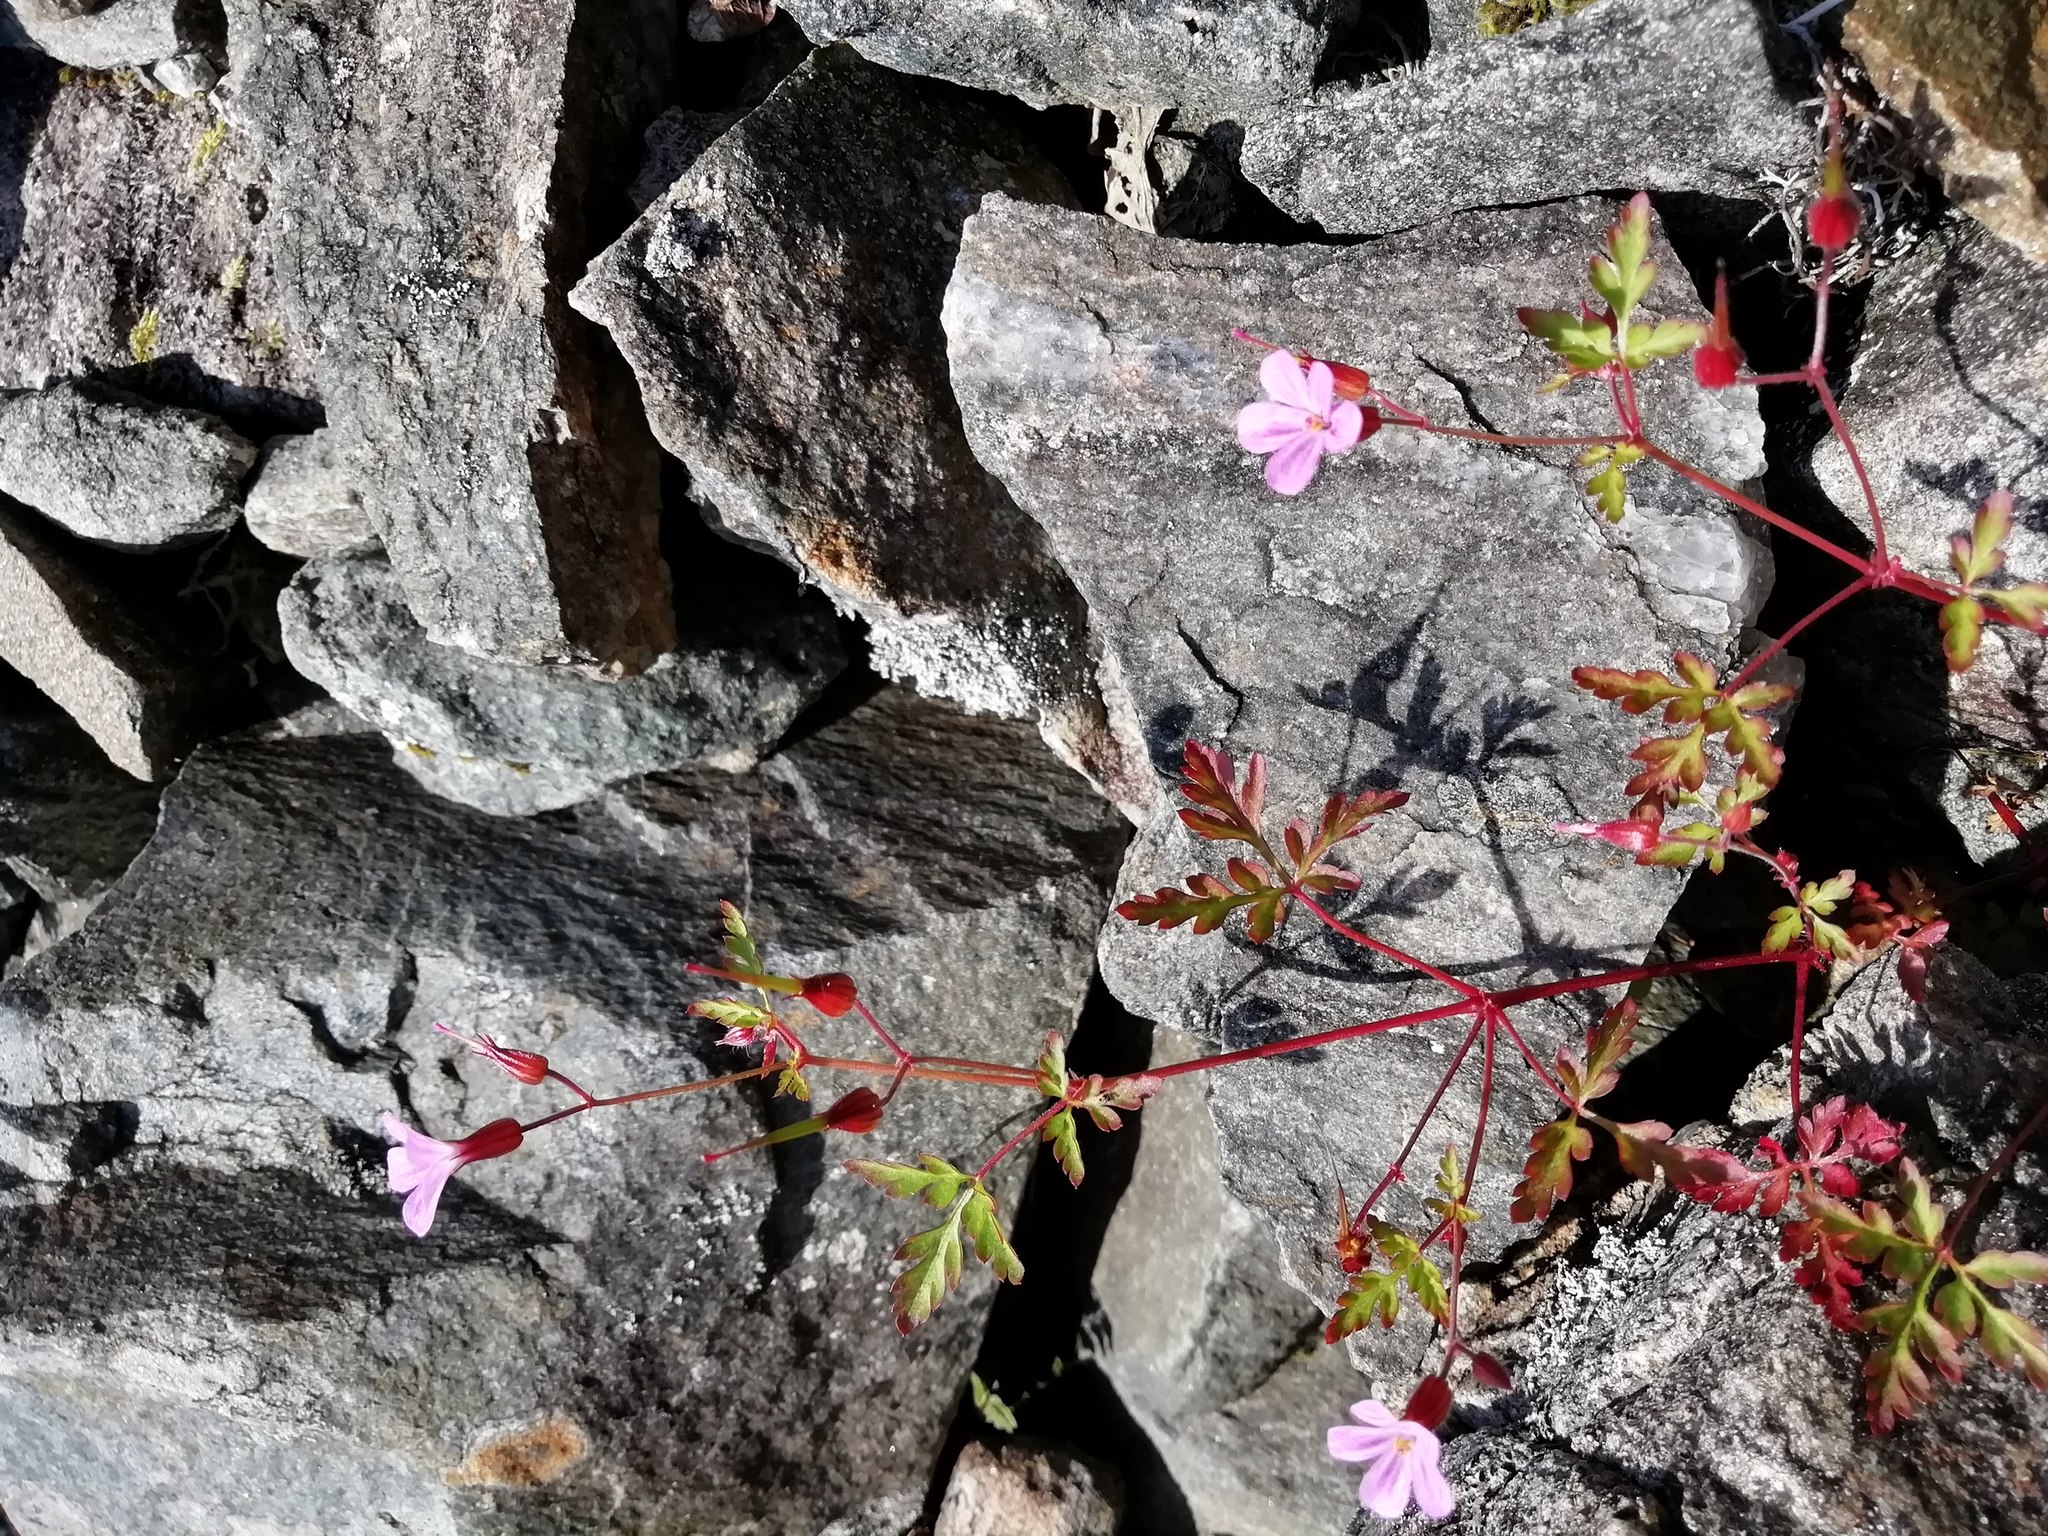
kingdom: Plantae
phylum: Tracheophyta
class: Magnoliopsida
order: Geraniales
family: Geraniaceae
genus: Geranium
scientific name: Geranium robertianum
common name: Herb-robert
